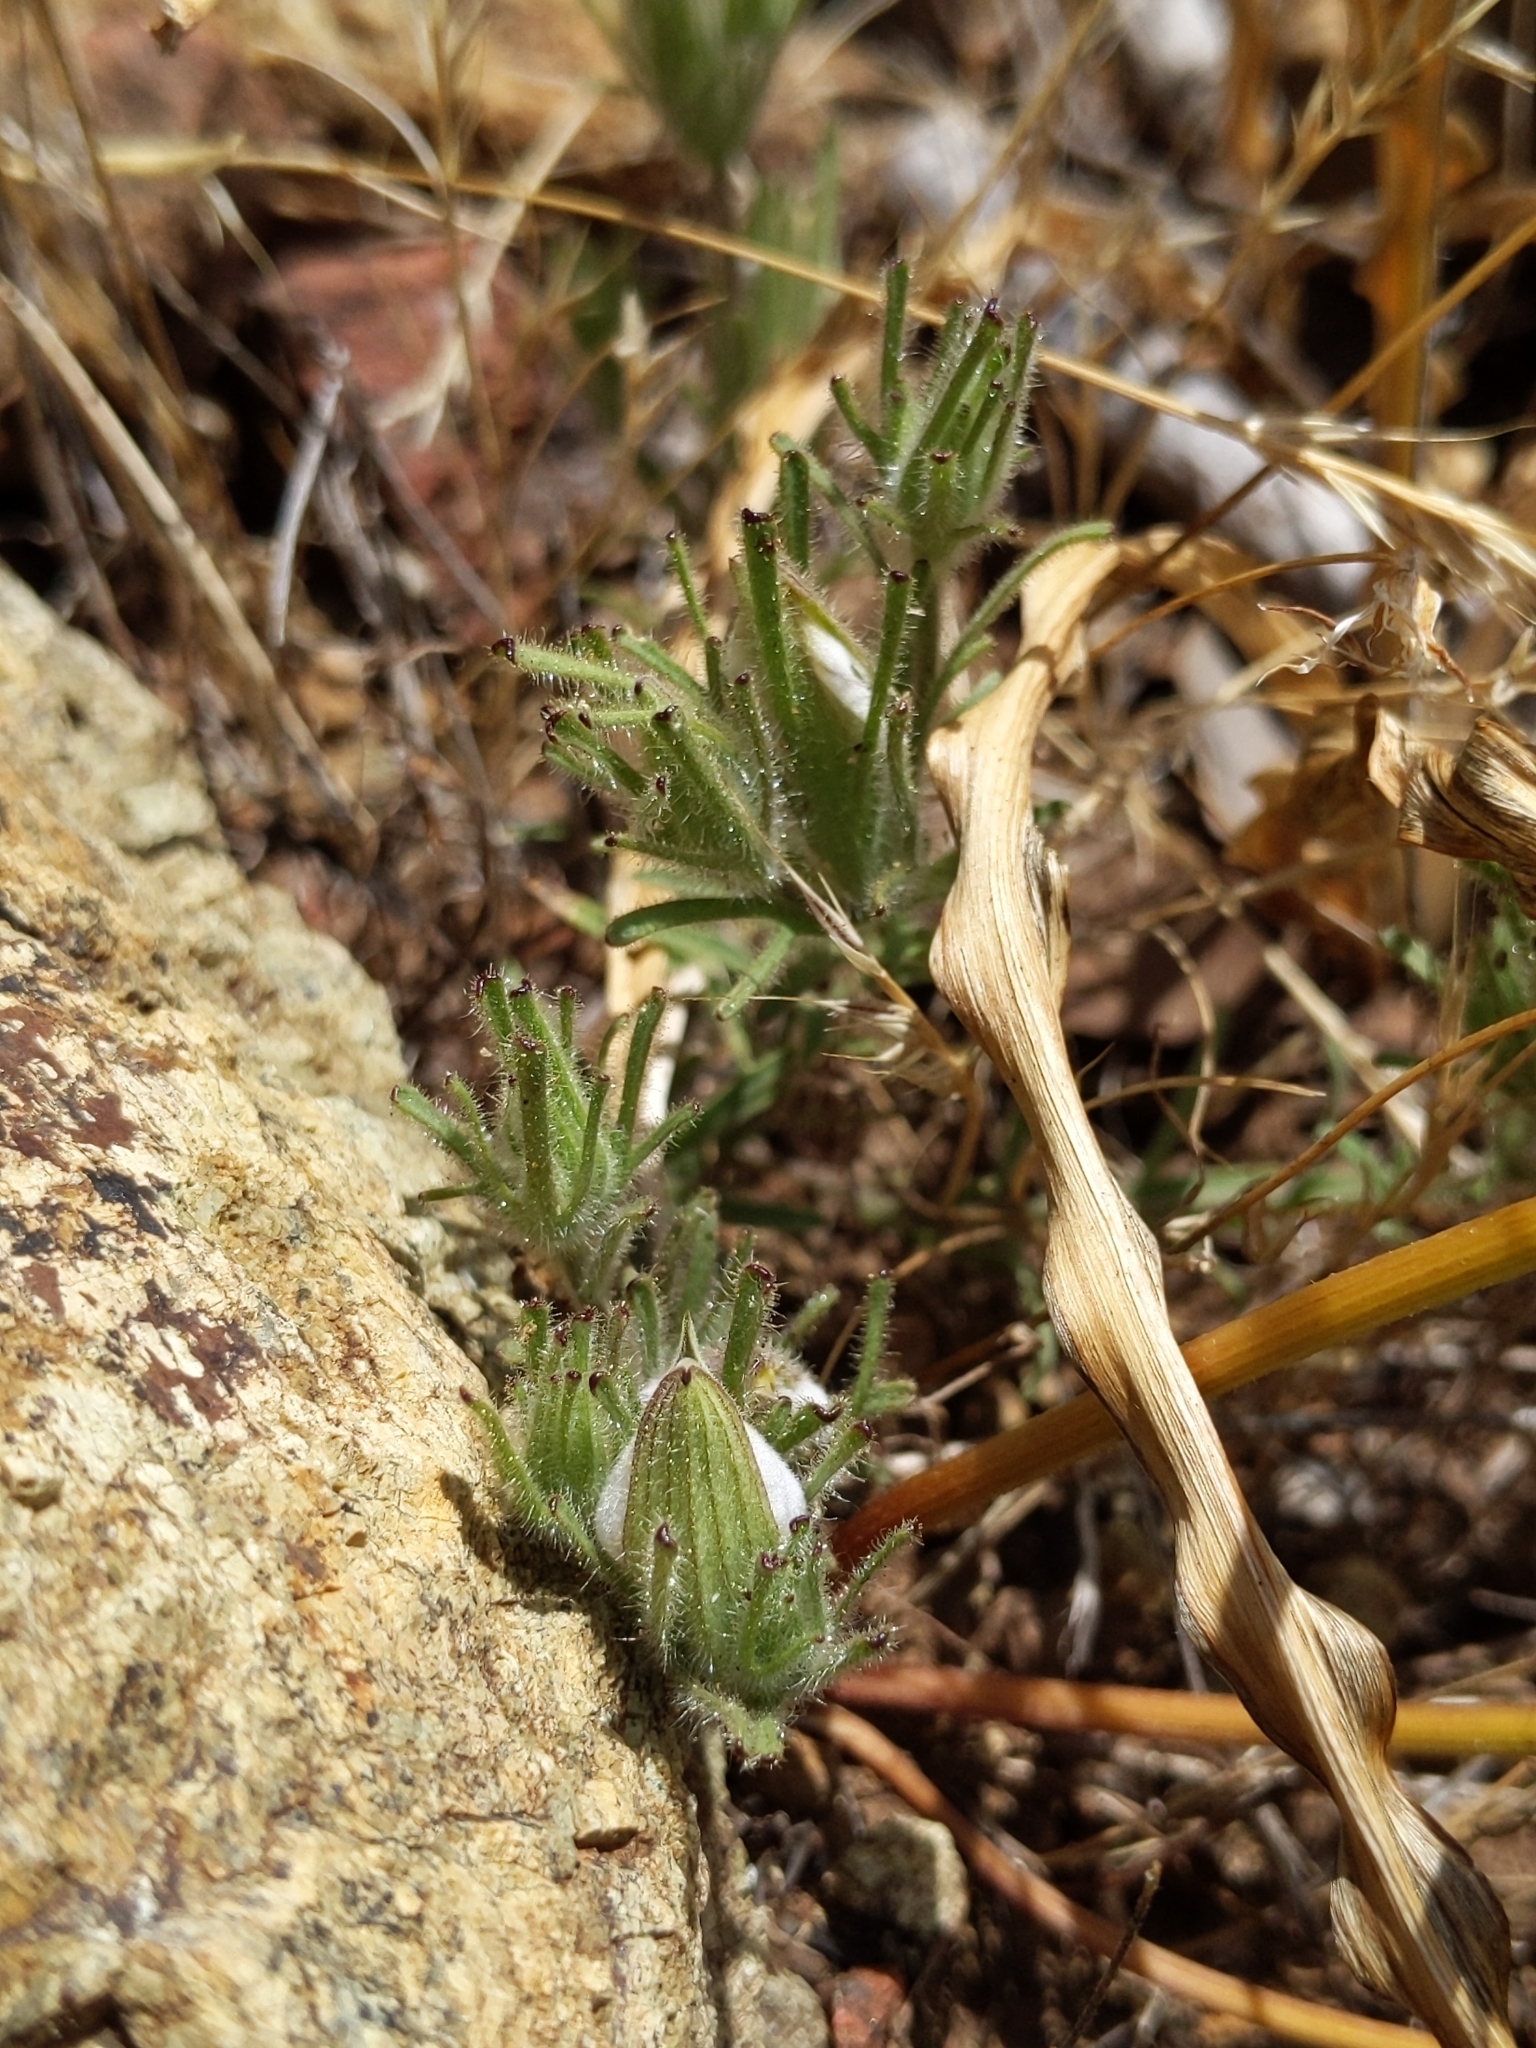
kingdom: Plantae
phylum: Tracheophyta
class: Magnoliopsida
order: Lamiales
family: Orobanchaceae
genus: Cordylanthus
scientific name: Cordylanthus nidularius
